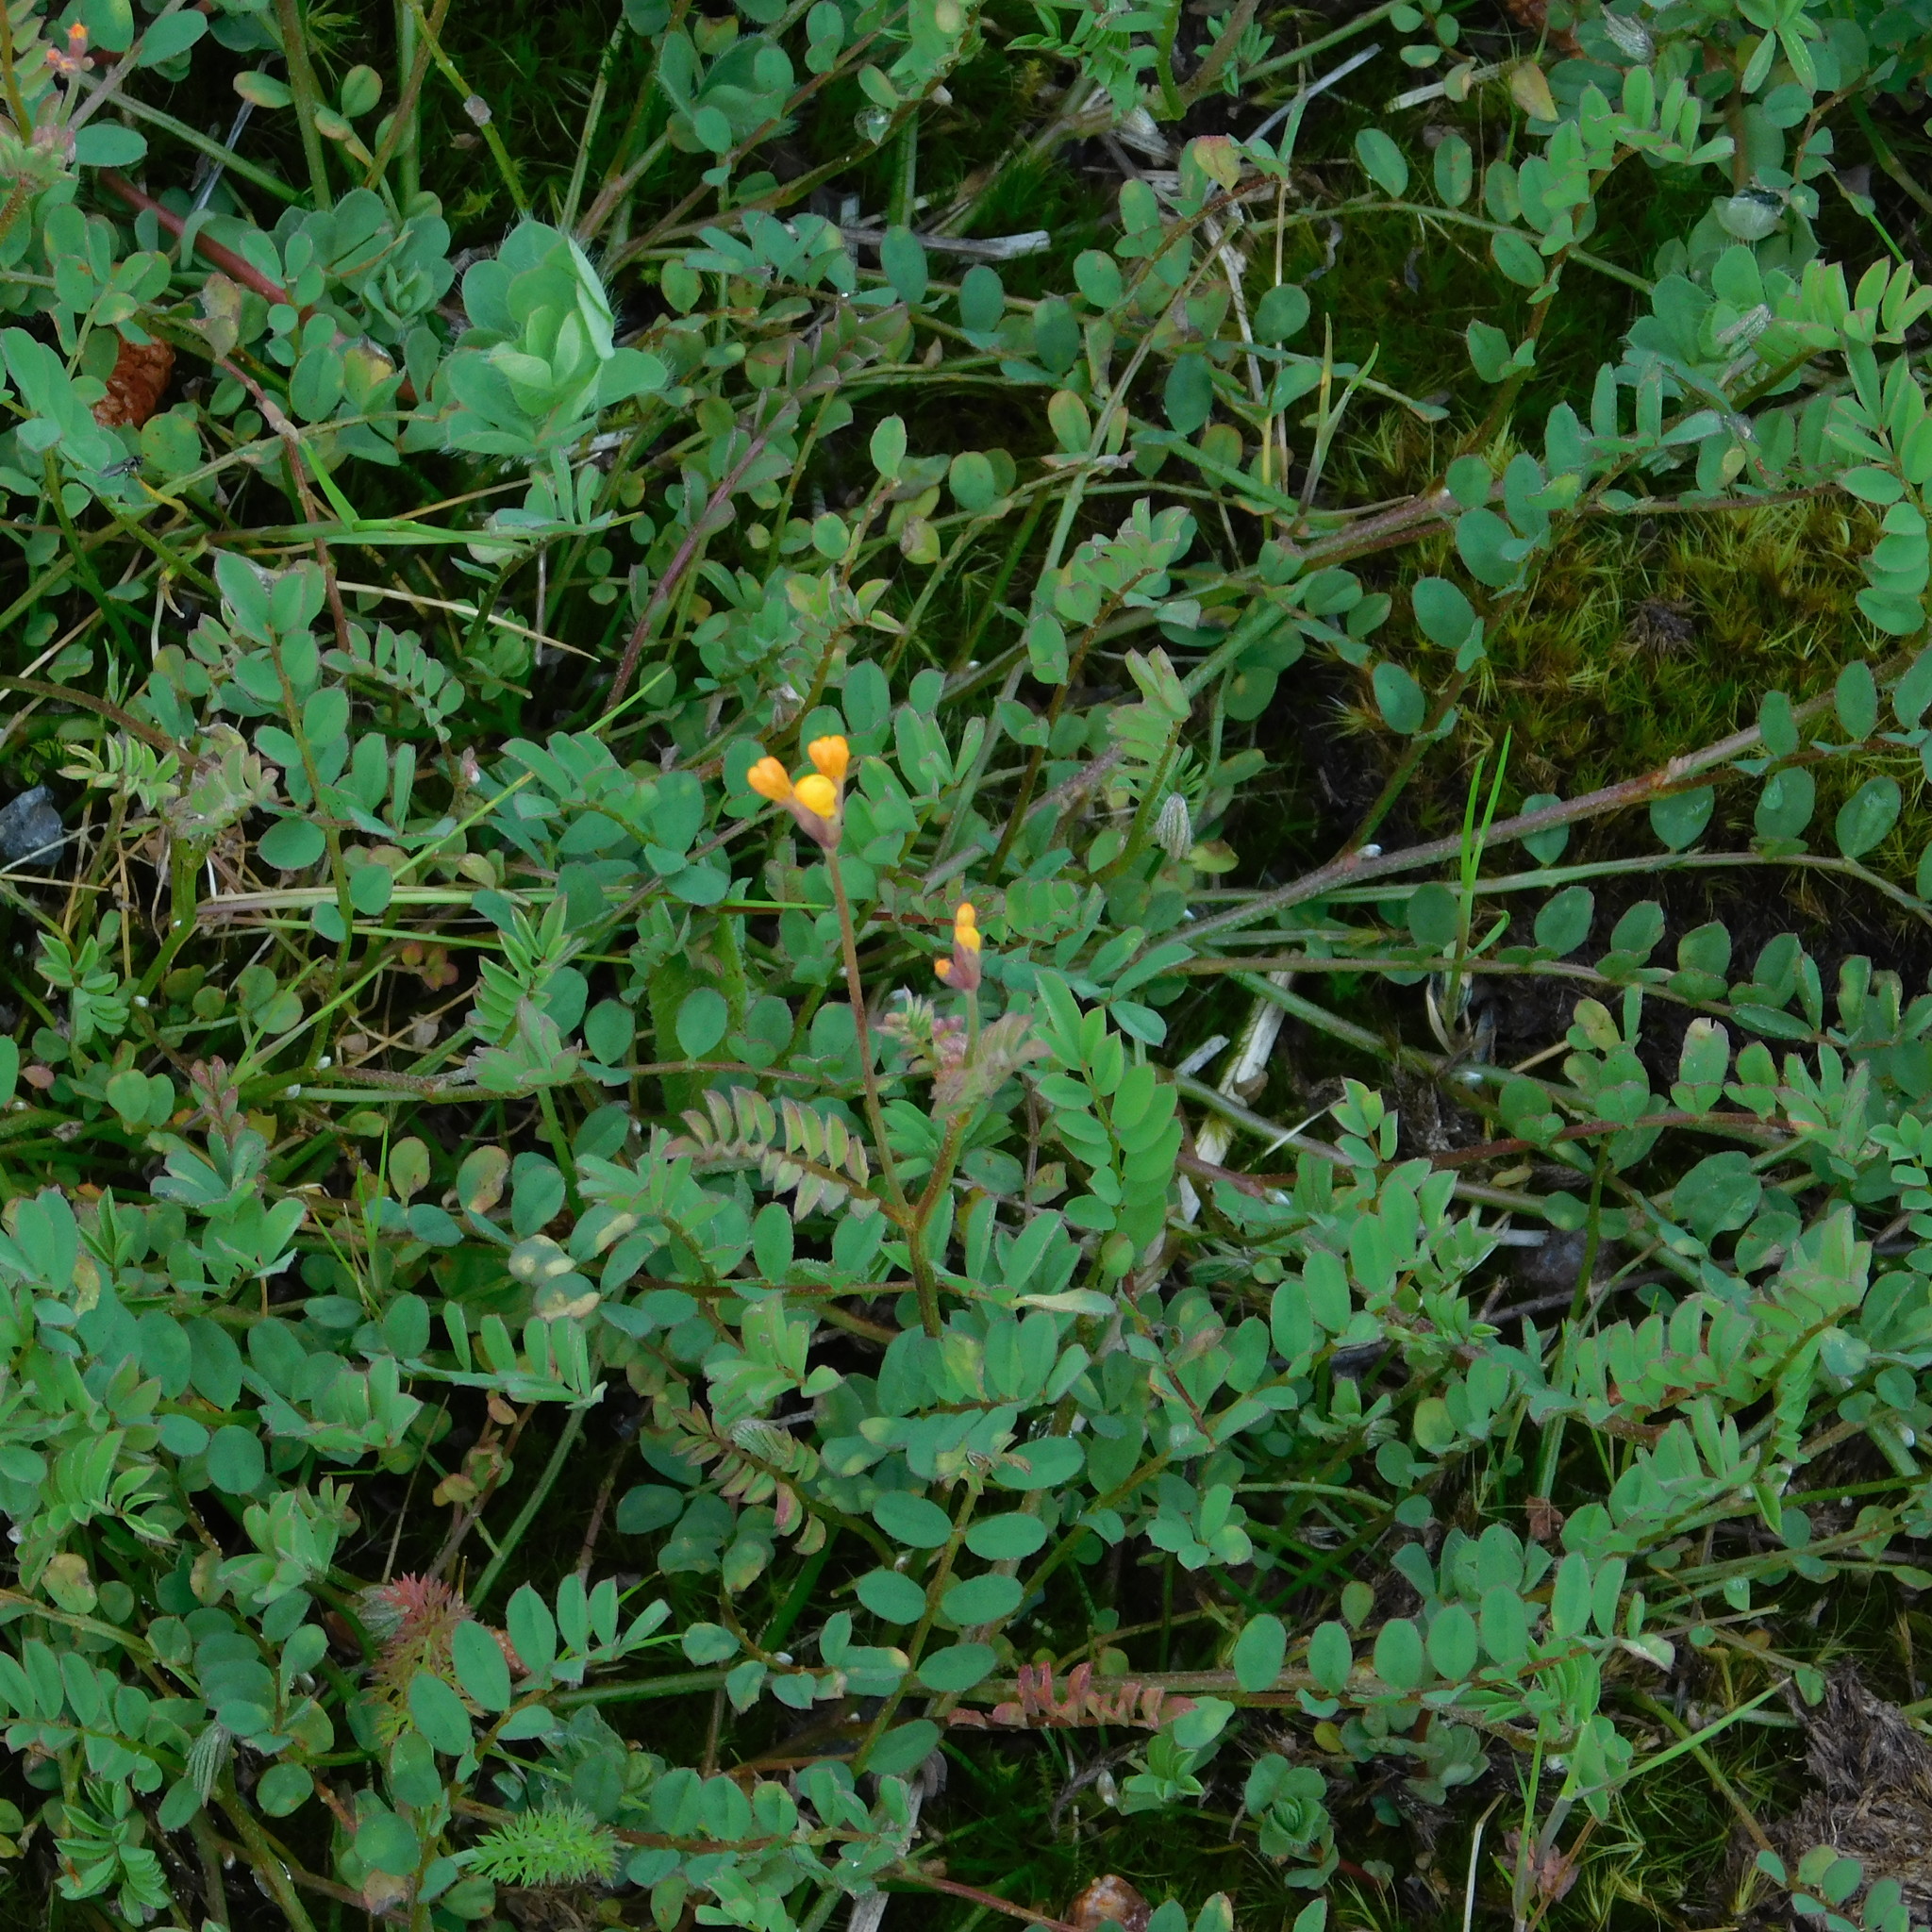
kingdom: Plantae
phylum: Tracheophyta
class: Magnoliopsida
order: Fabales
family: Fabaceae
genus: Ornithopus
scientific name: Ornithopus pinnatus
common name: Orange bird's-foot
